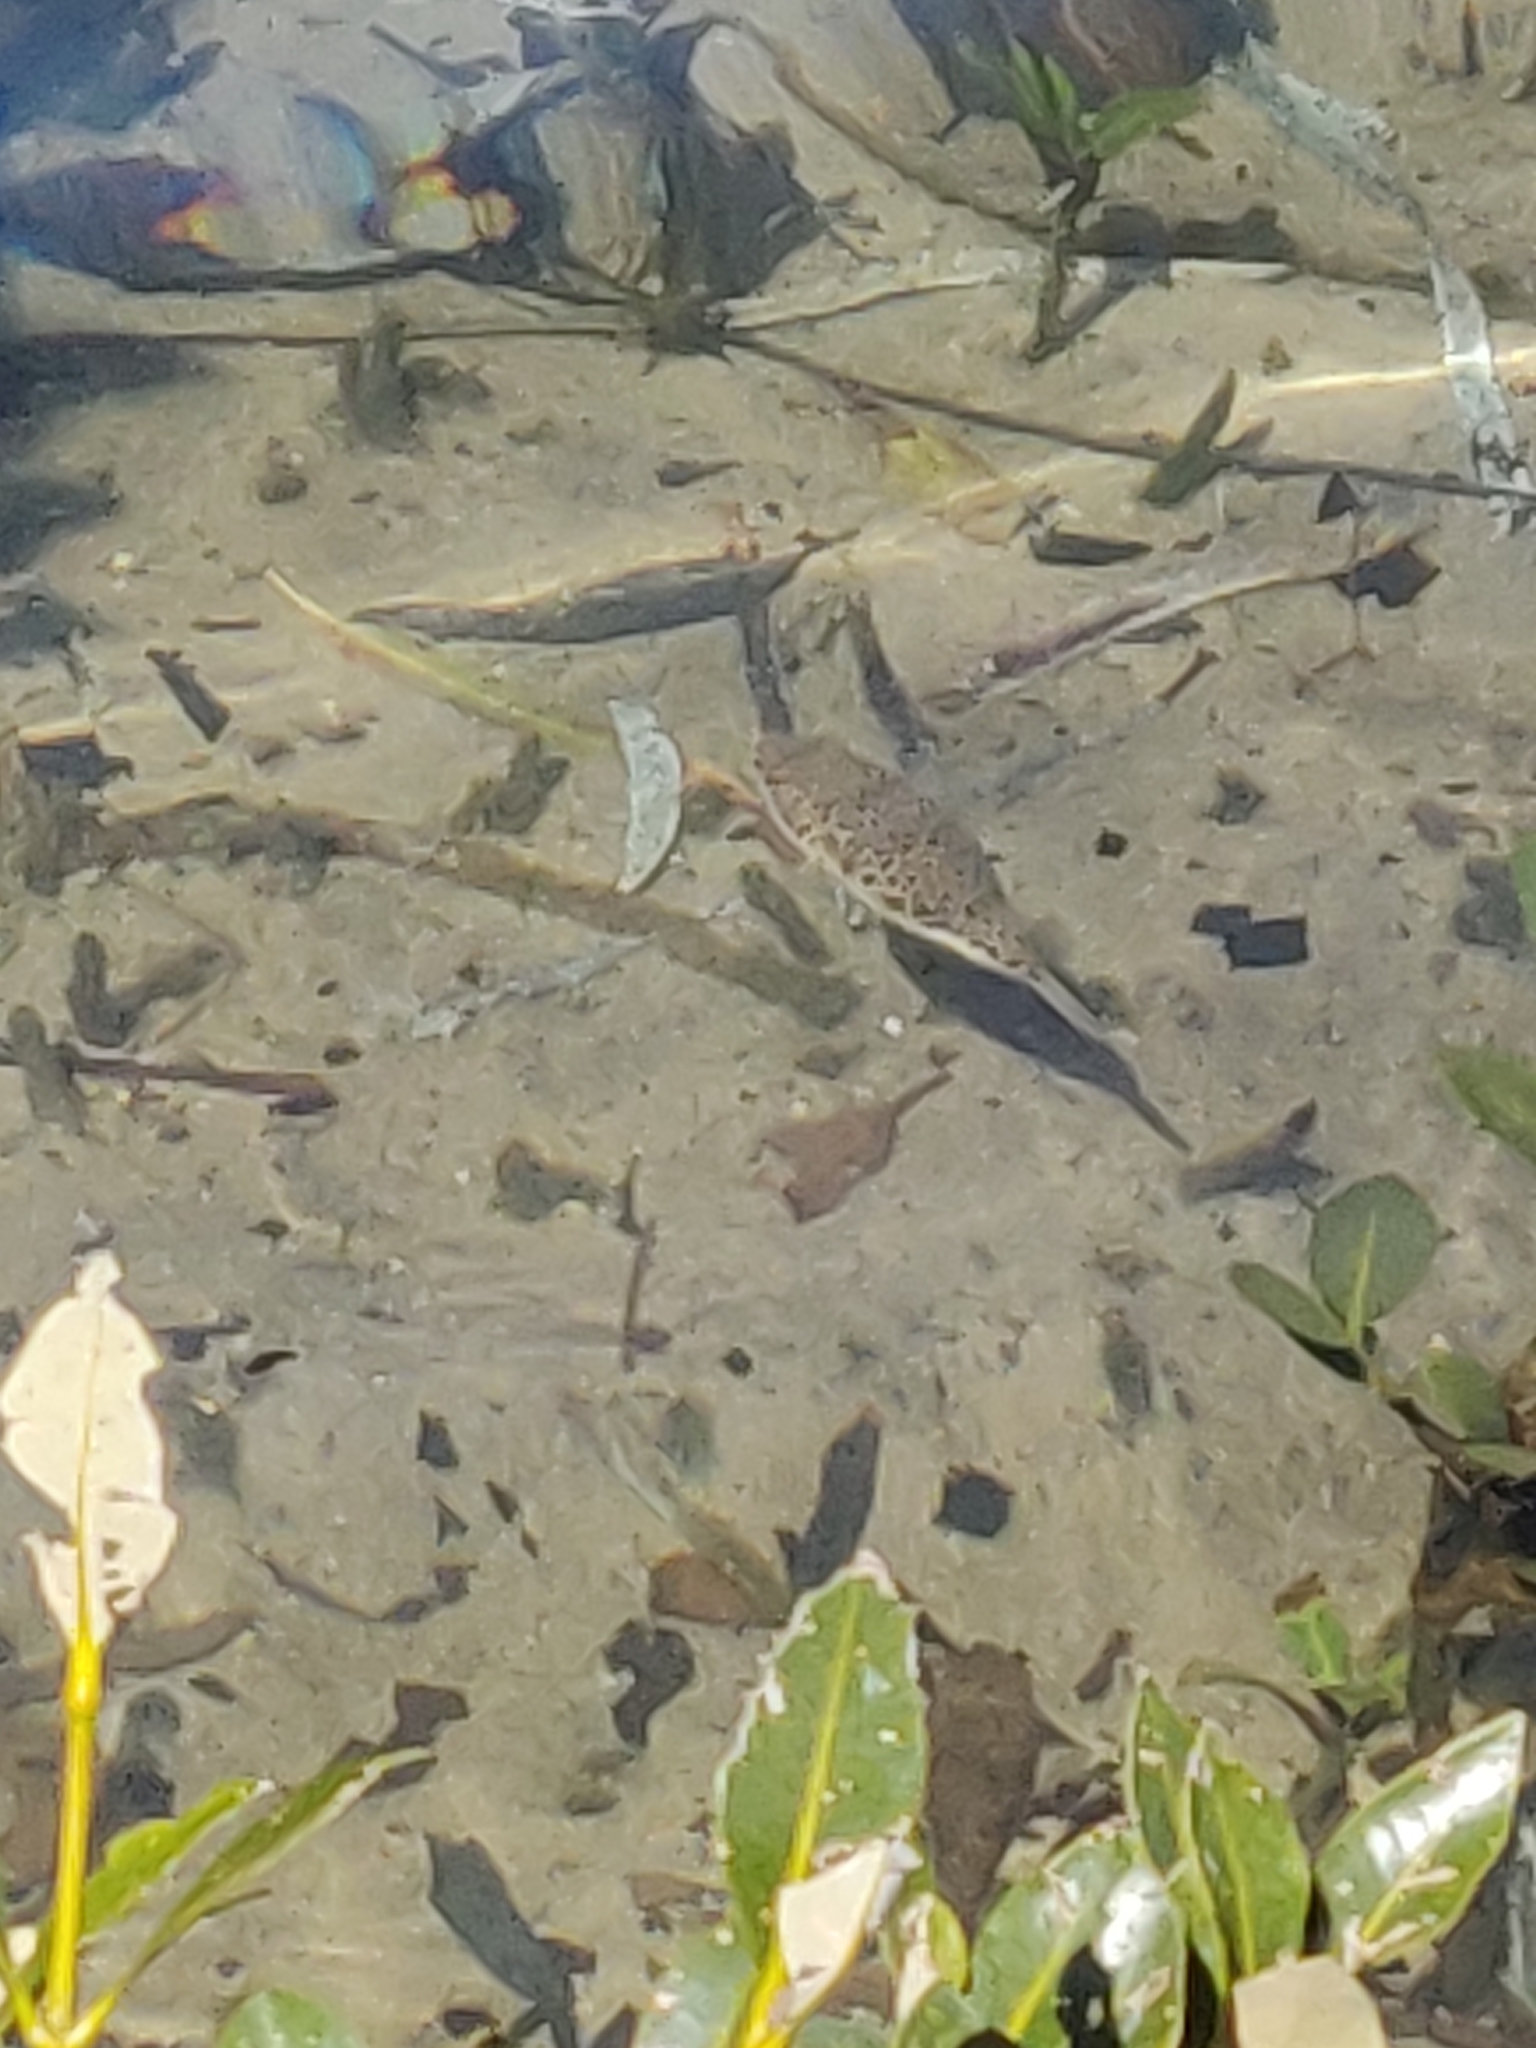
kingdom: Animalia
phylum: Chordata
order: Tetraodontiformes
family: Tetraodontidae
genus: Tetractenos
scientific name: Tetractenos hamiltoni
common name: Common toadfish
